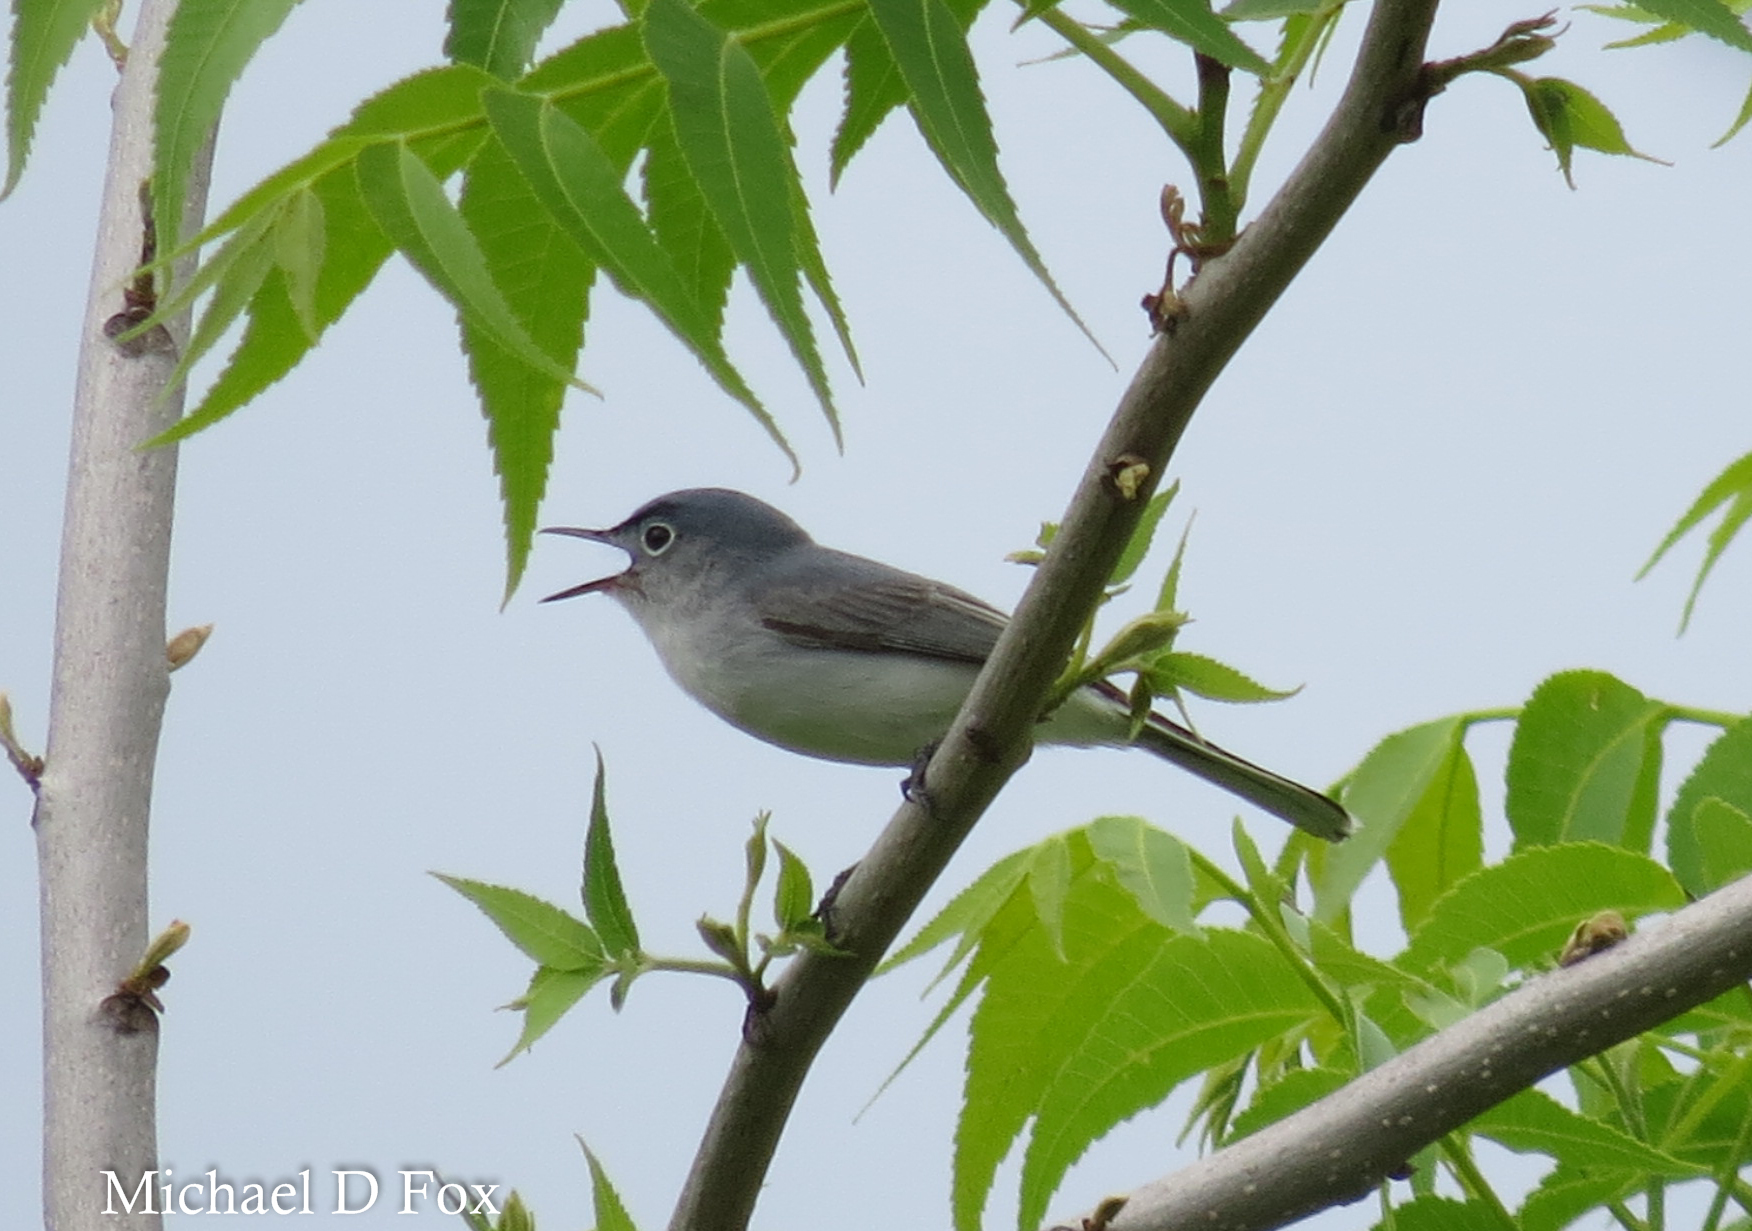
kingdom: Animalia
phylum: Chordata
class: Aves
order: Passeriformes
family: Polioptilidae
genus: Polioptila
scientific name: Polioptila caerulea
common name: Blue-gray gnatcatcher
